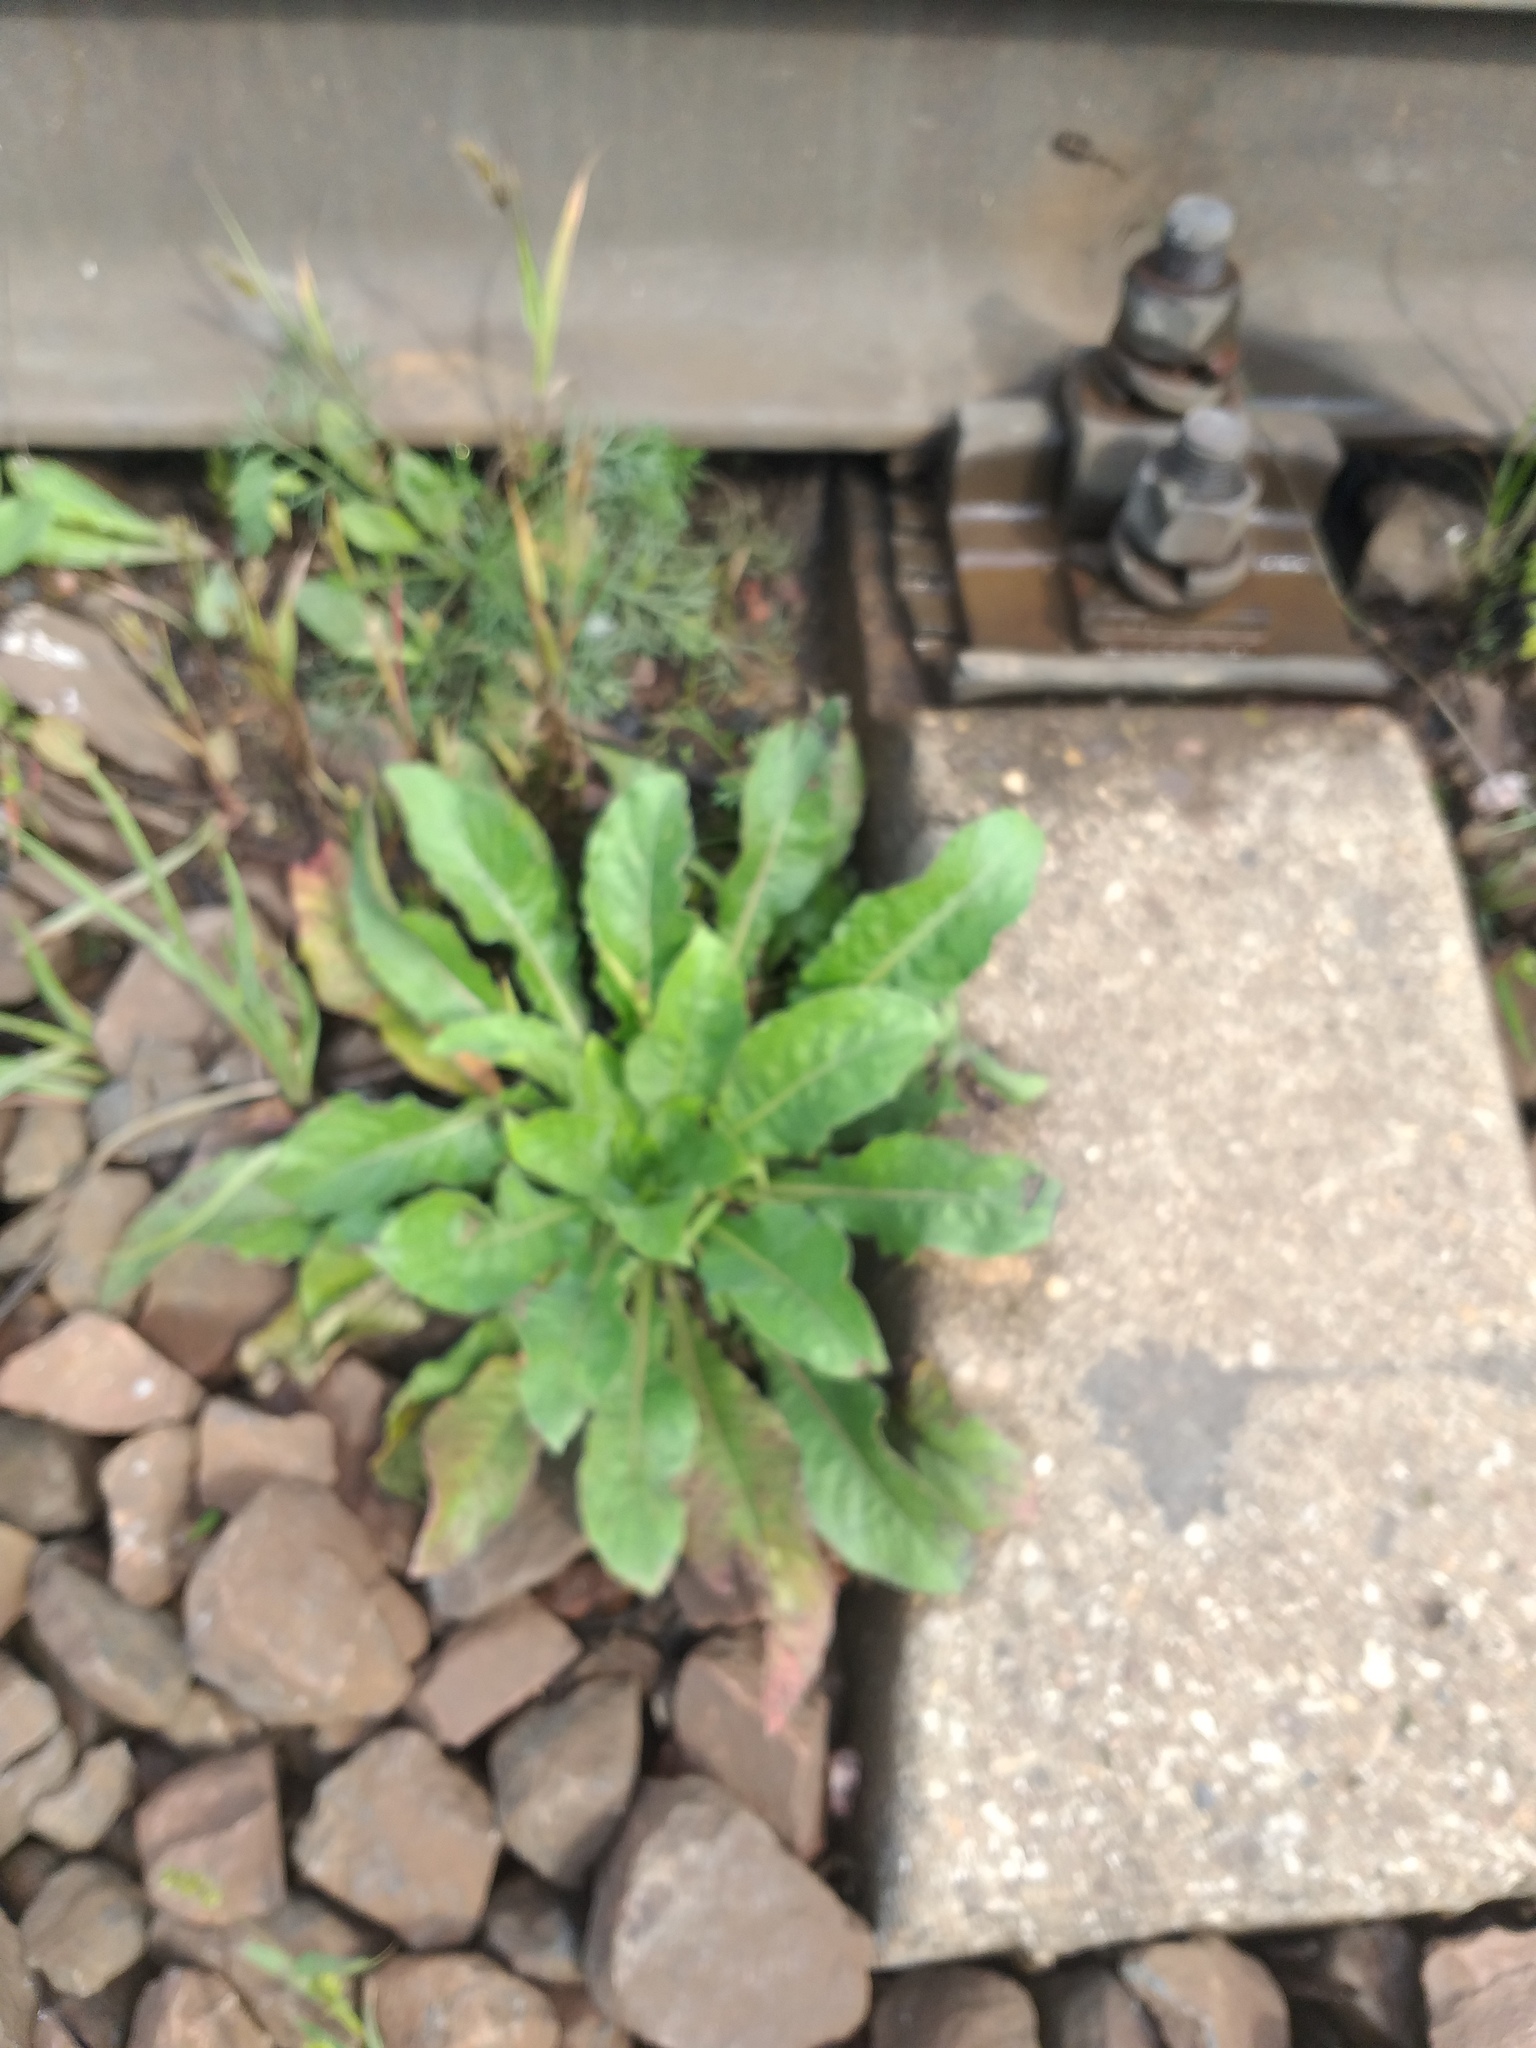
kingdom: Plantae
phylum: Tracheophyta
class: Magnoliopsida
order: Myrtales
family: Onagraceae
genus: Oenothera
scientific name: Oenothera
